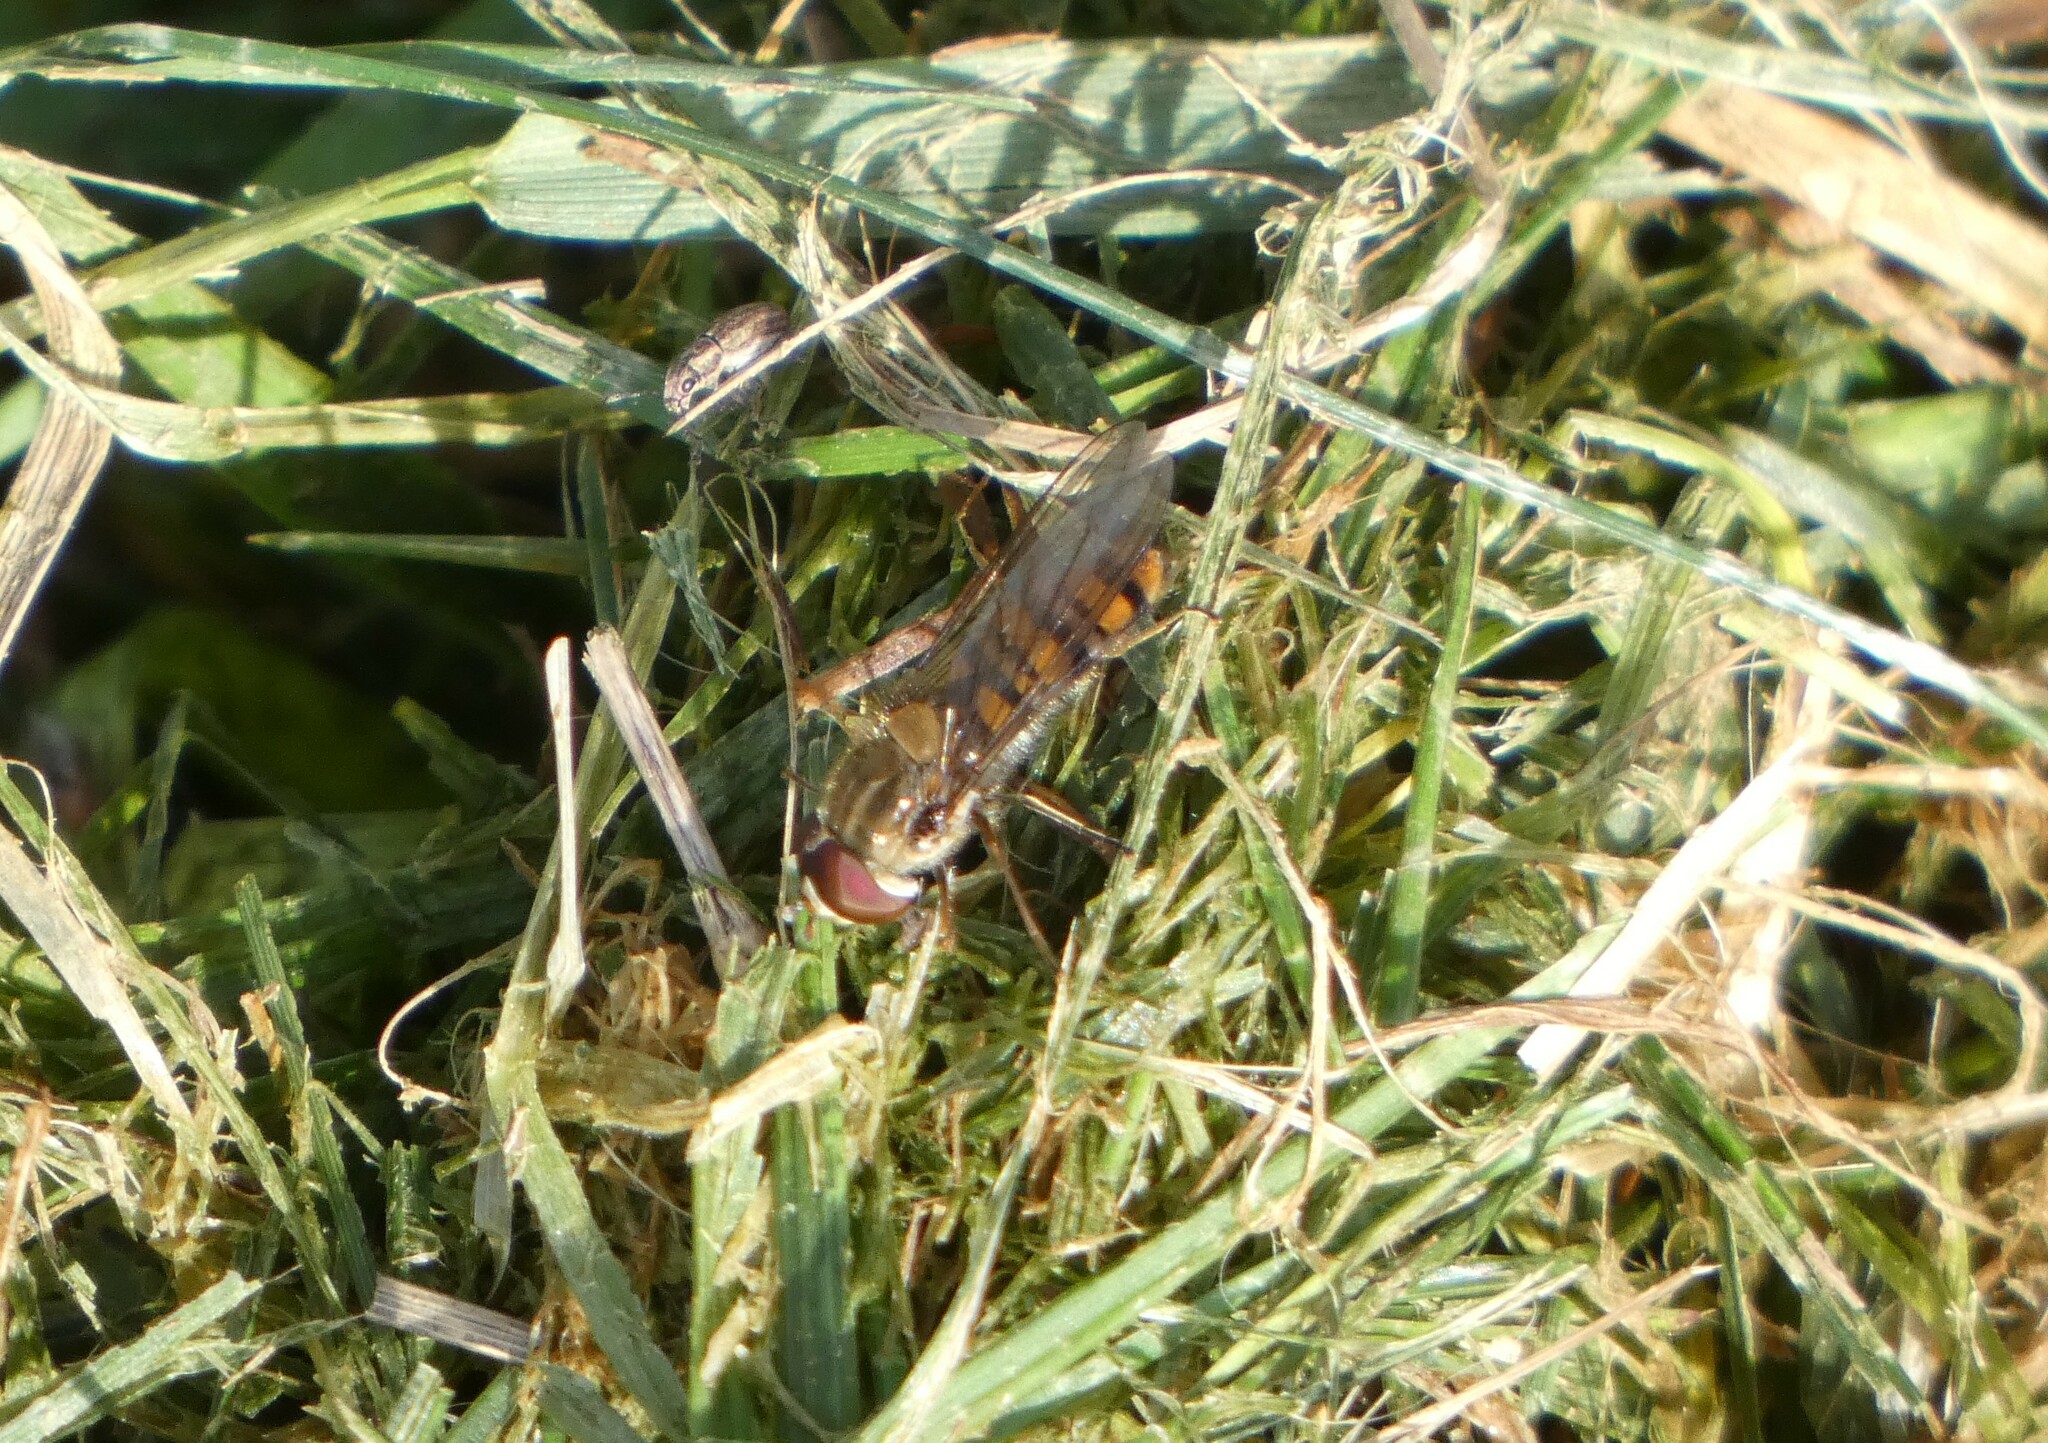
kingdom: Animalia
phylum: Arthropoda
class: Insecta
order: Diptera
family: Syrphidae
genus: Episyrphus
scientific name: Episyrphus balteatus
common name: Marmalade hoverfly
